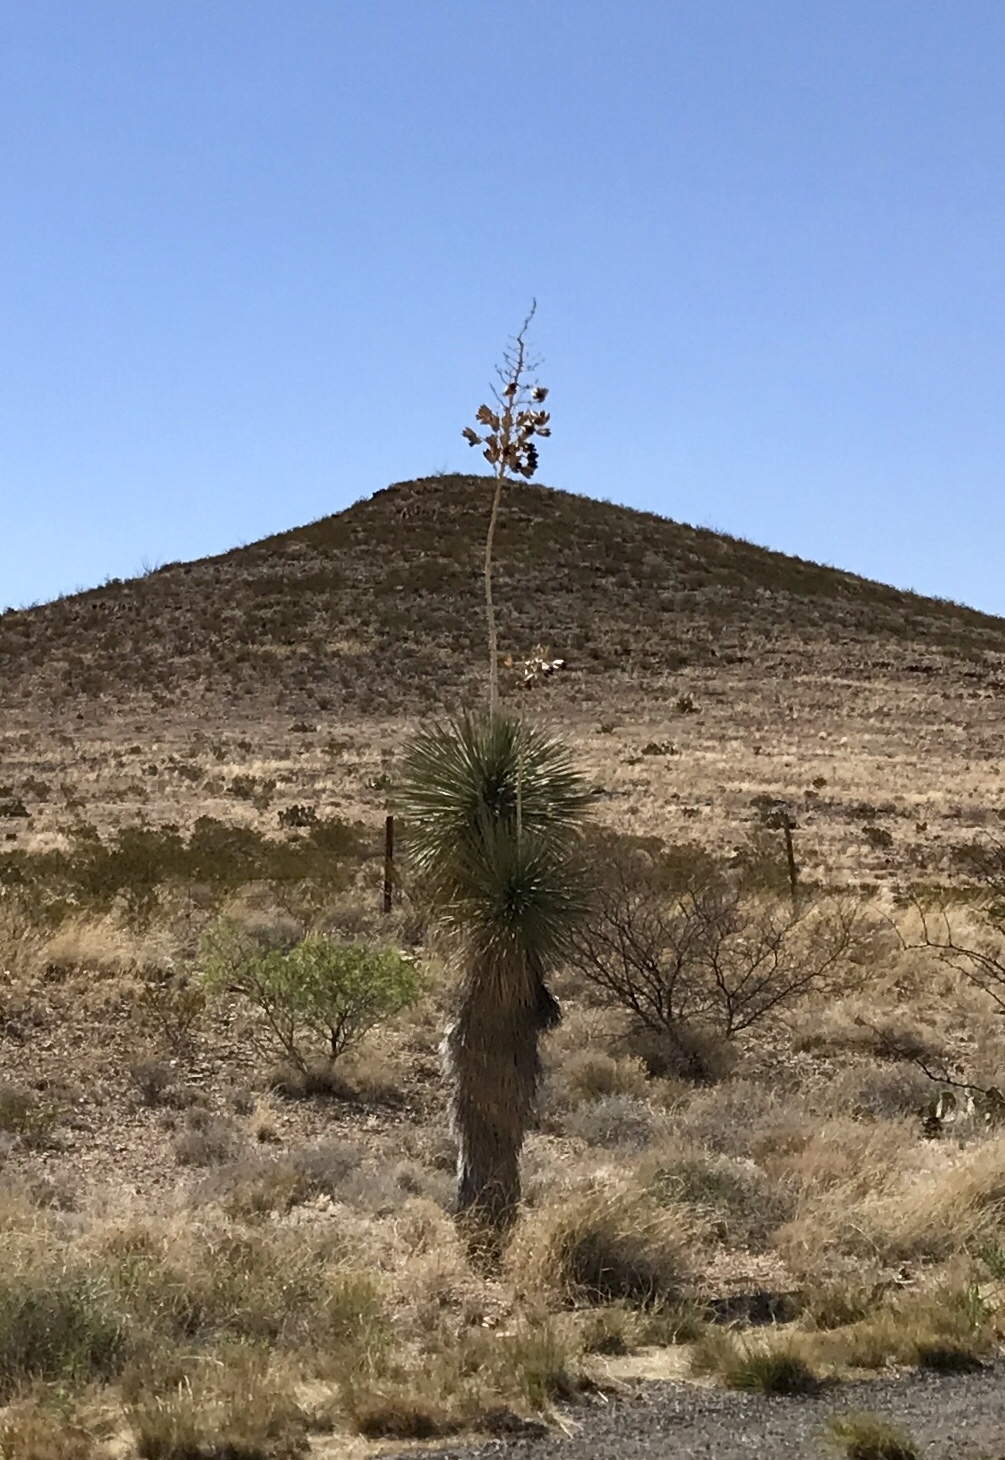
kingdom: Plantae
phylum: Tracheophyta
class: Liliopsida
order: Asparagales
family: Asparagaceae
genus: Yucca
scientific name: Yucca elata
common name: Palmella
